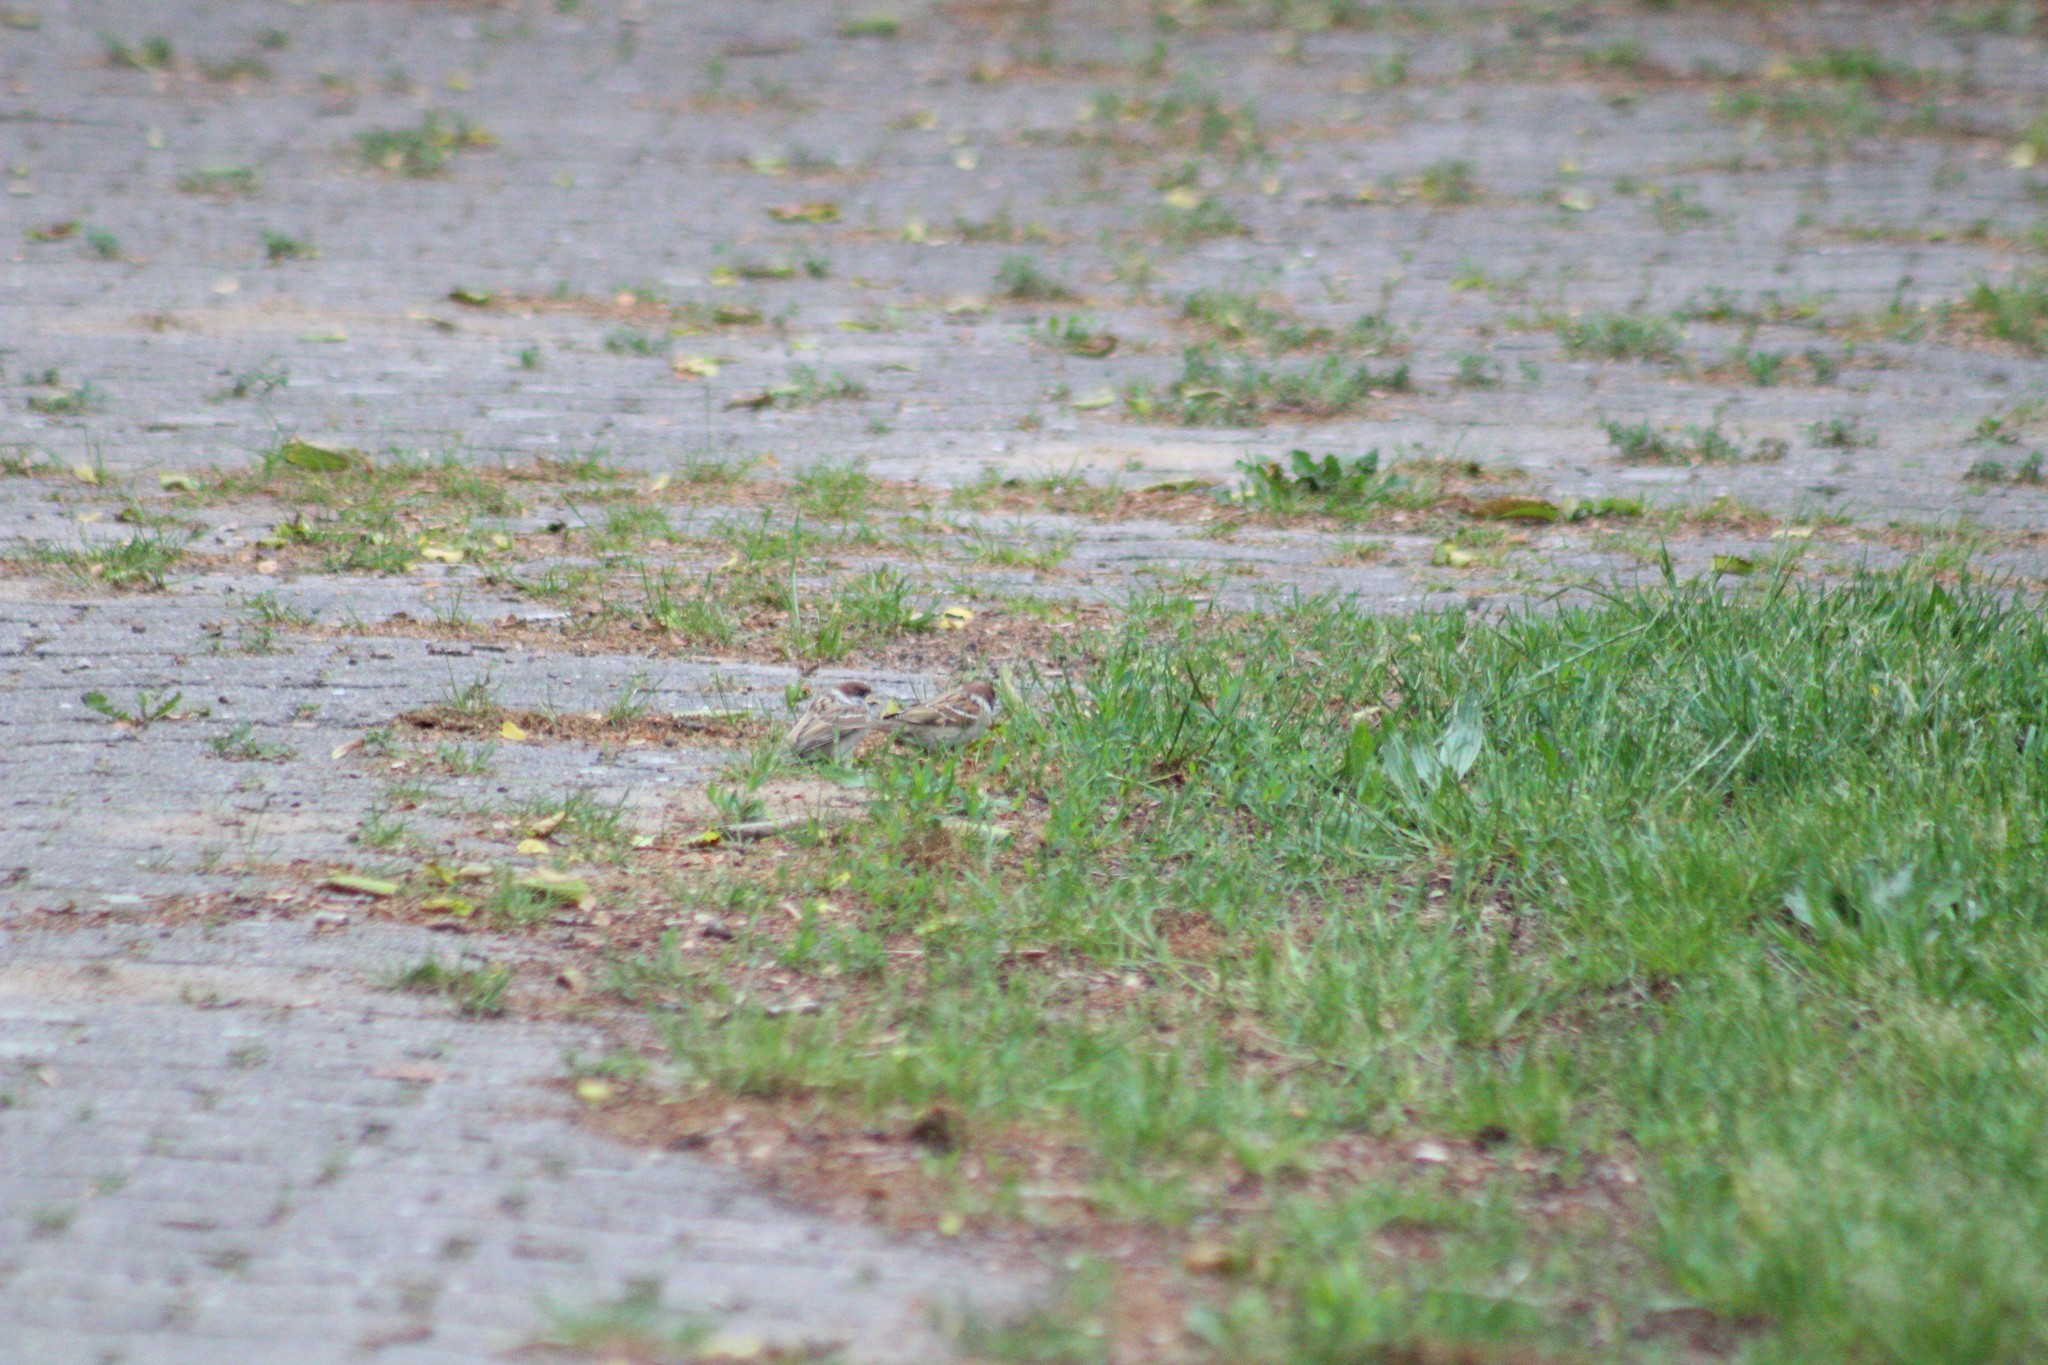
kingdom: Animalia
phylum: Chordata
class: Aves
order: Passeriformes
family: Passeridae
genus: Passer
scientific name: Passer montanus
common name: Eurasian tree sparrow
